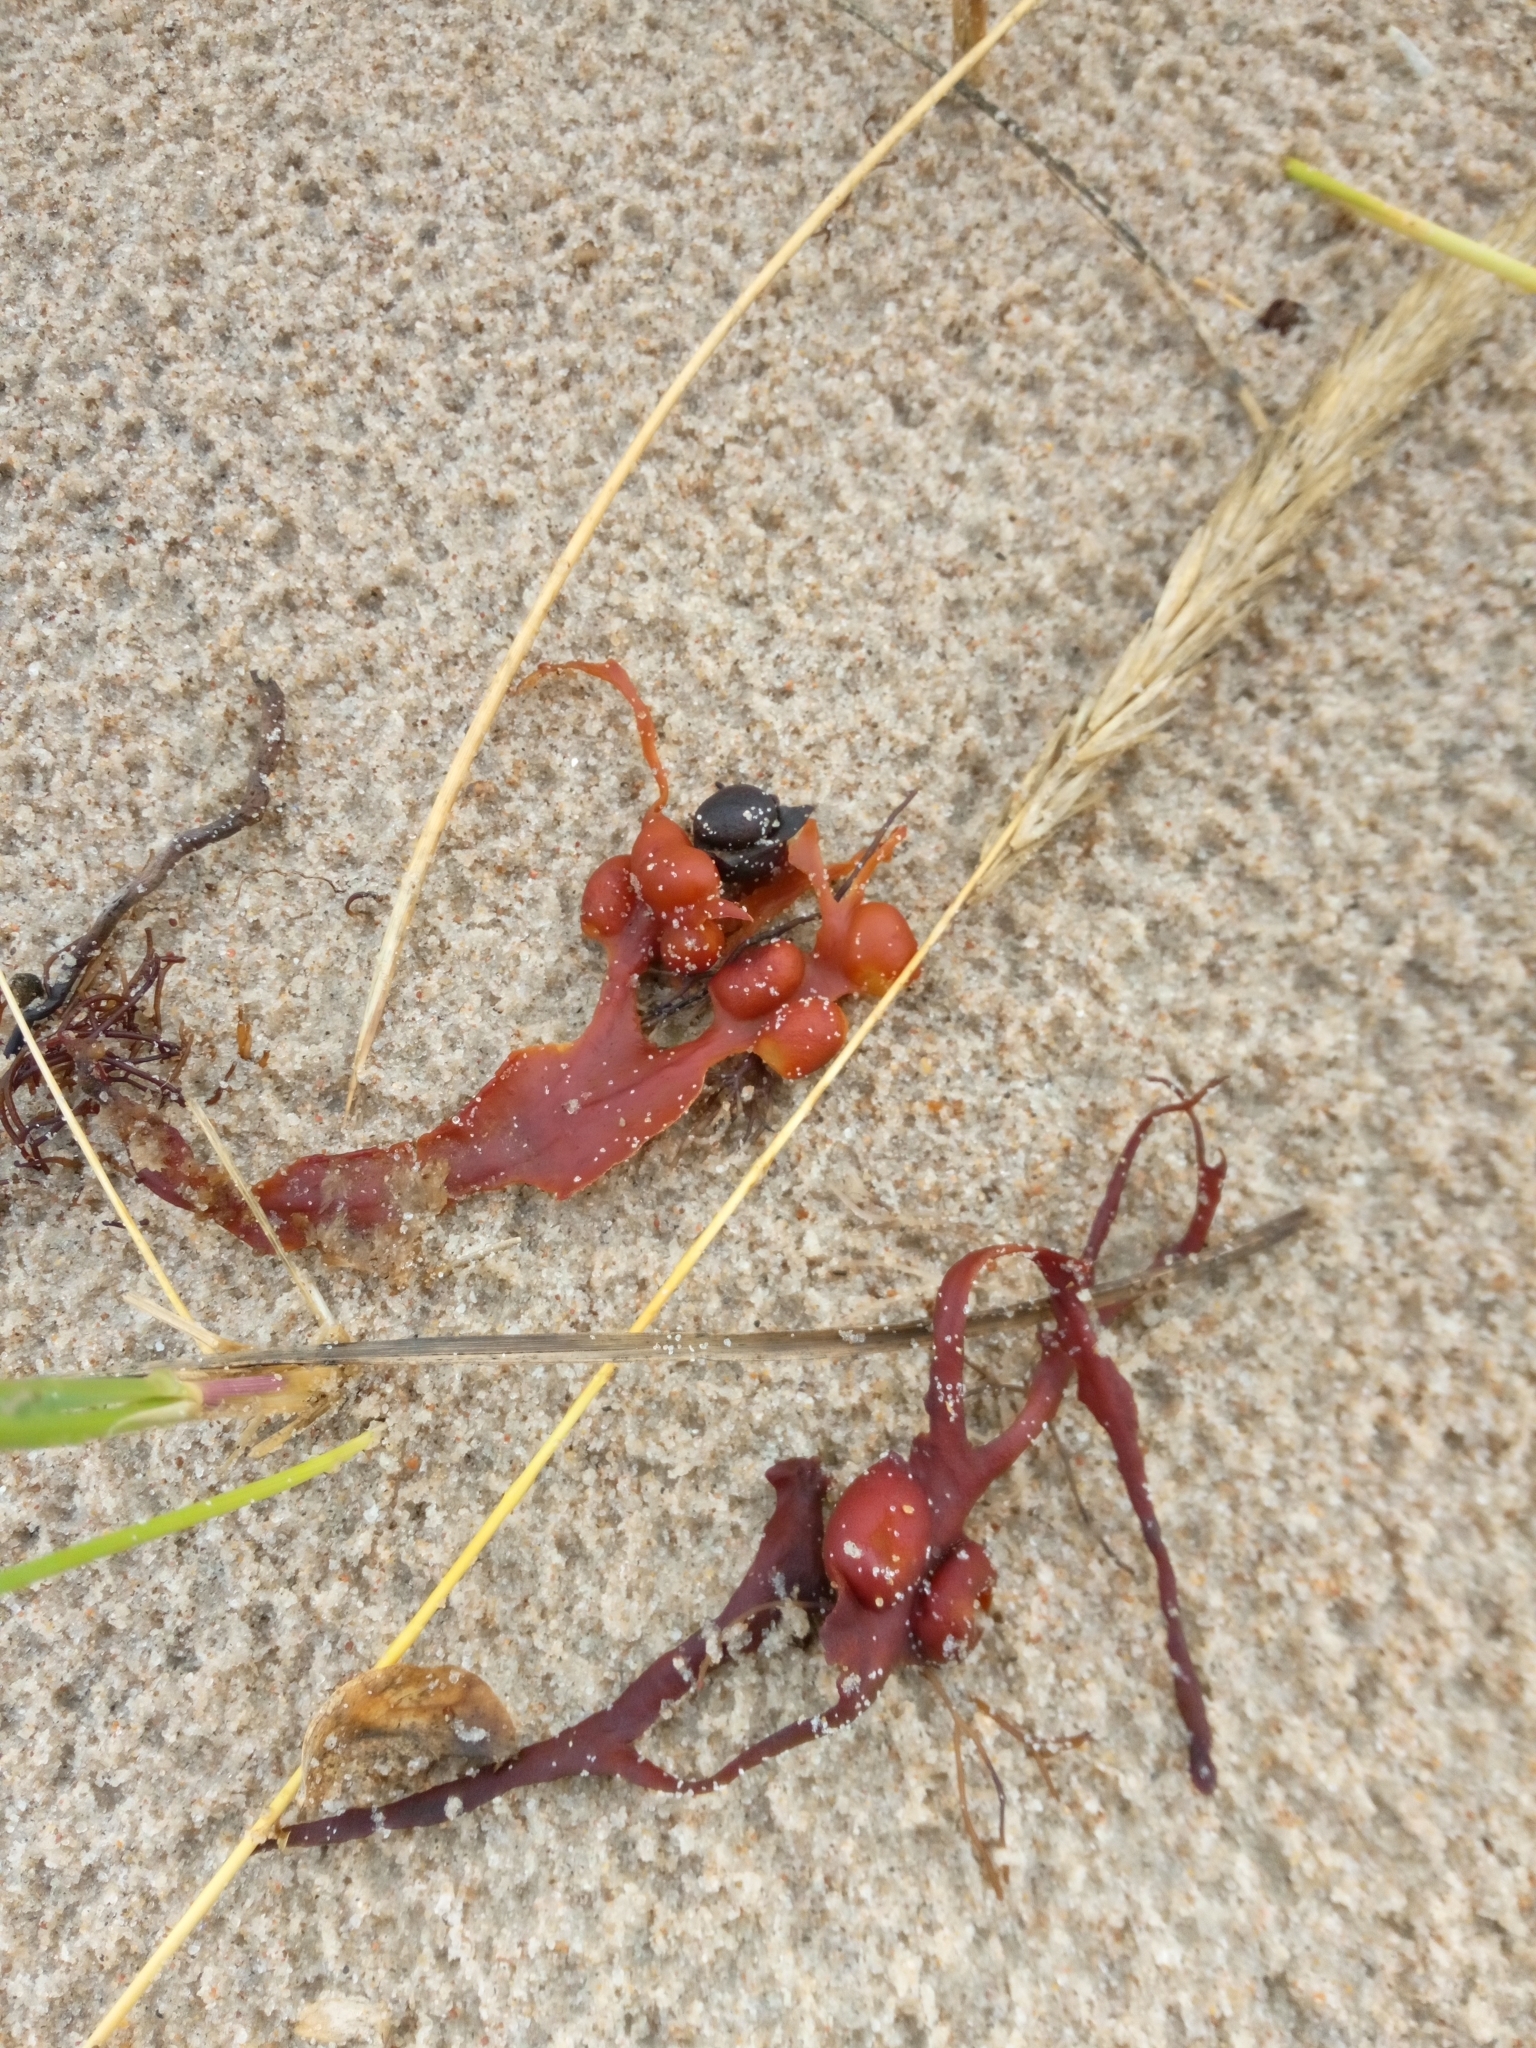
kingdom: Chromista
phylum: Ochrophyta
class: Phaeophyceae
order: Fucales
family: Fucaceae
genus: Fucus
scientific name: Fucus vesiculosus
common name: Bladder wrack
